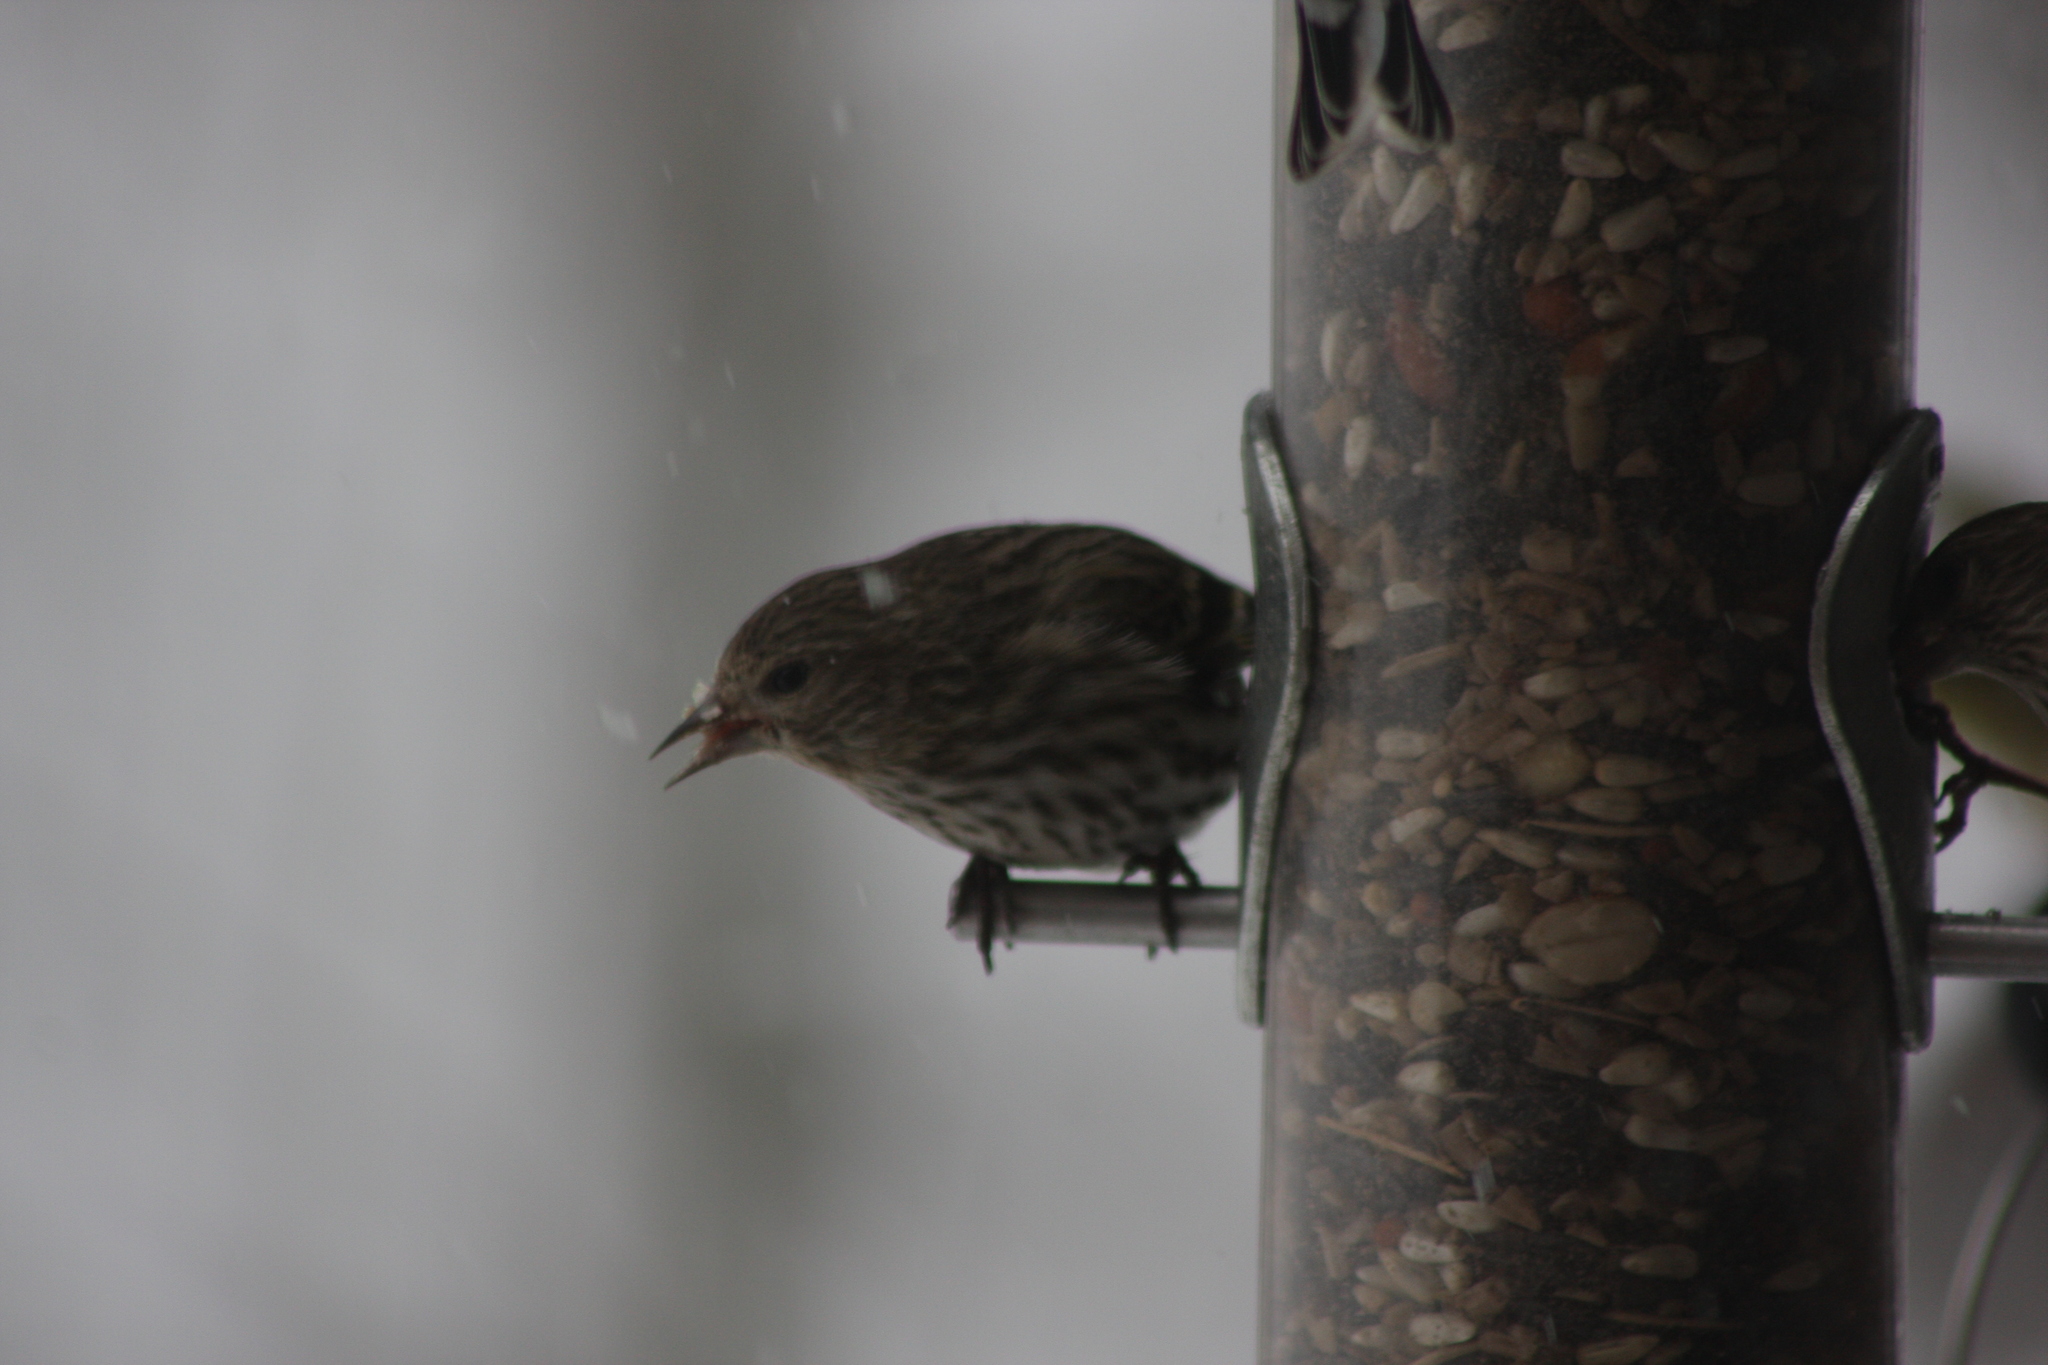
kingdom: Animalia
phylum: Chordata
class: Aves
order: Passeriformes
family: Fringillidae
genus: Spinus
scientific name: Spinus pinus
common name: Pine siskin
